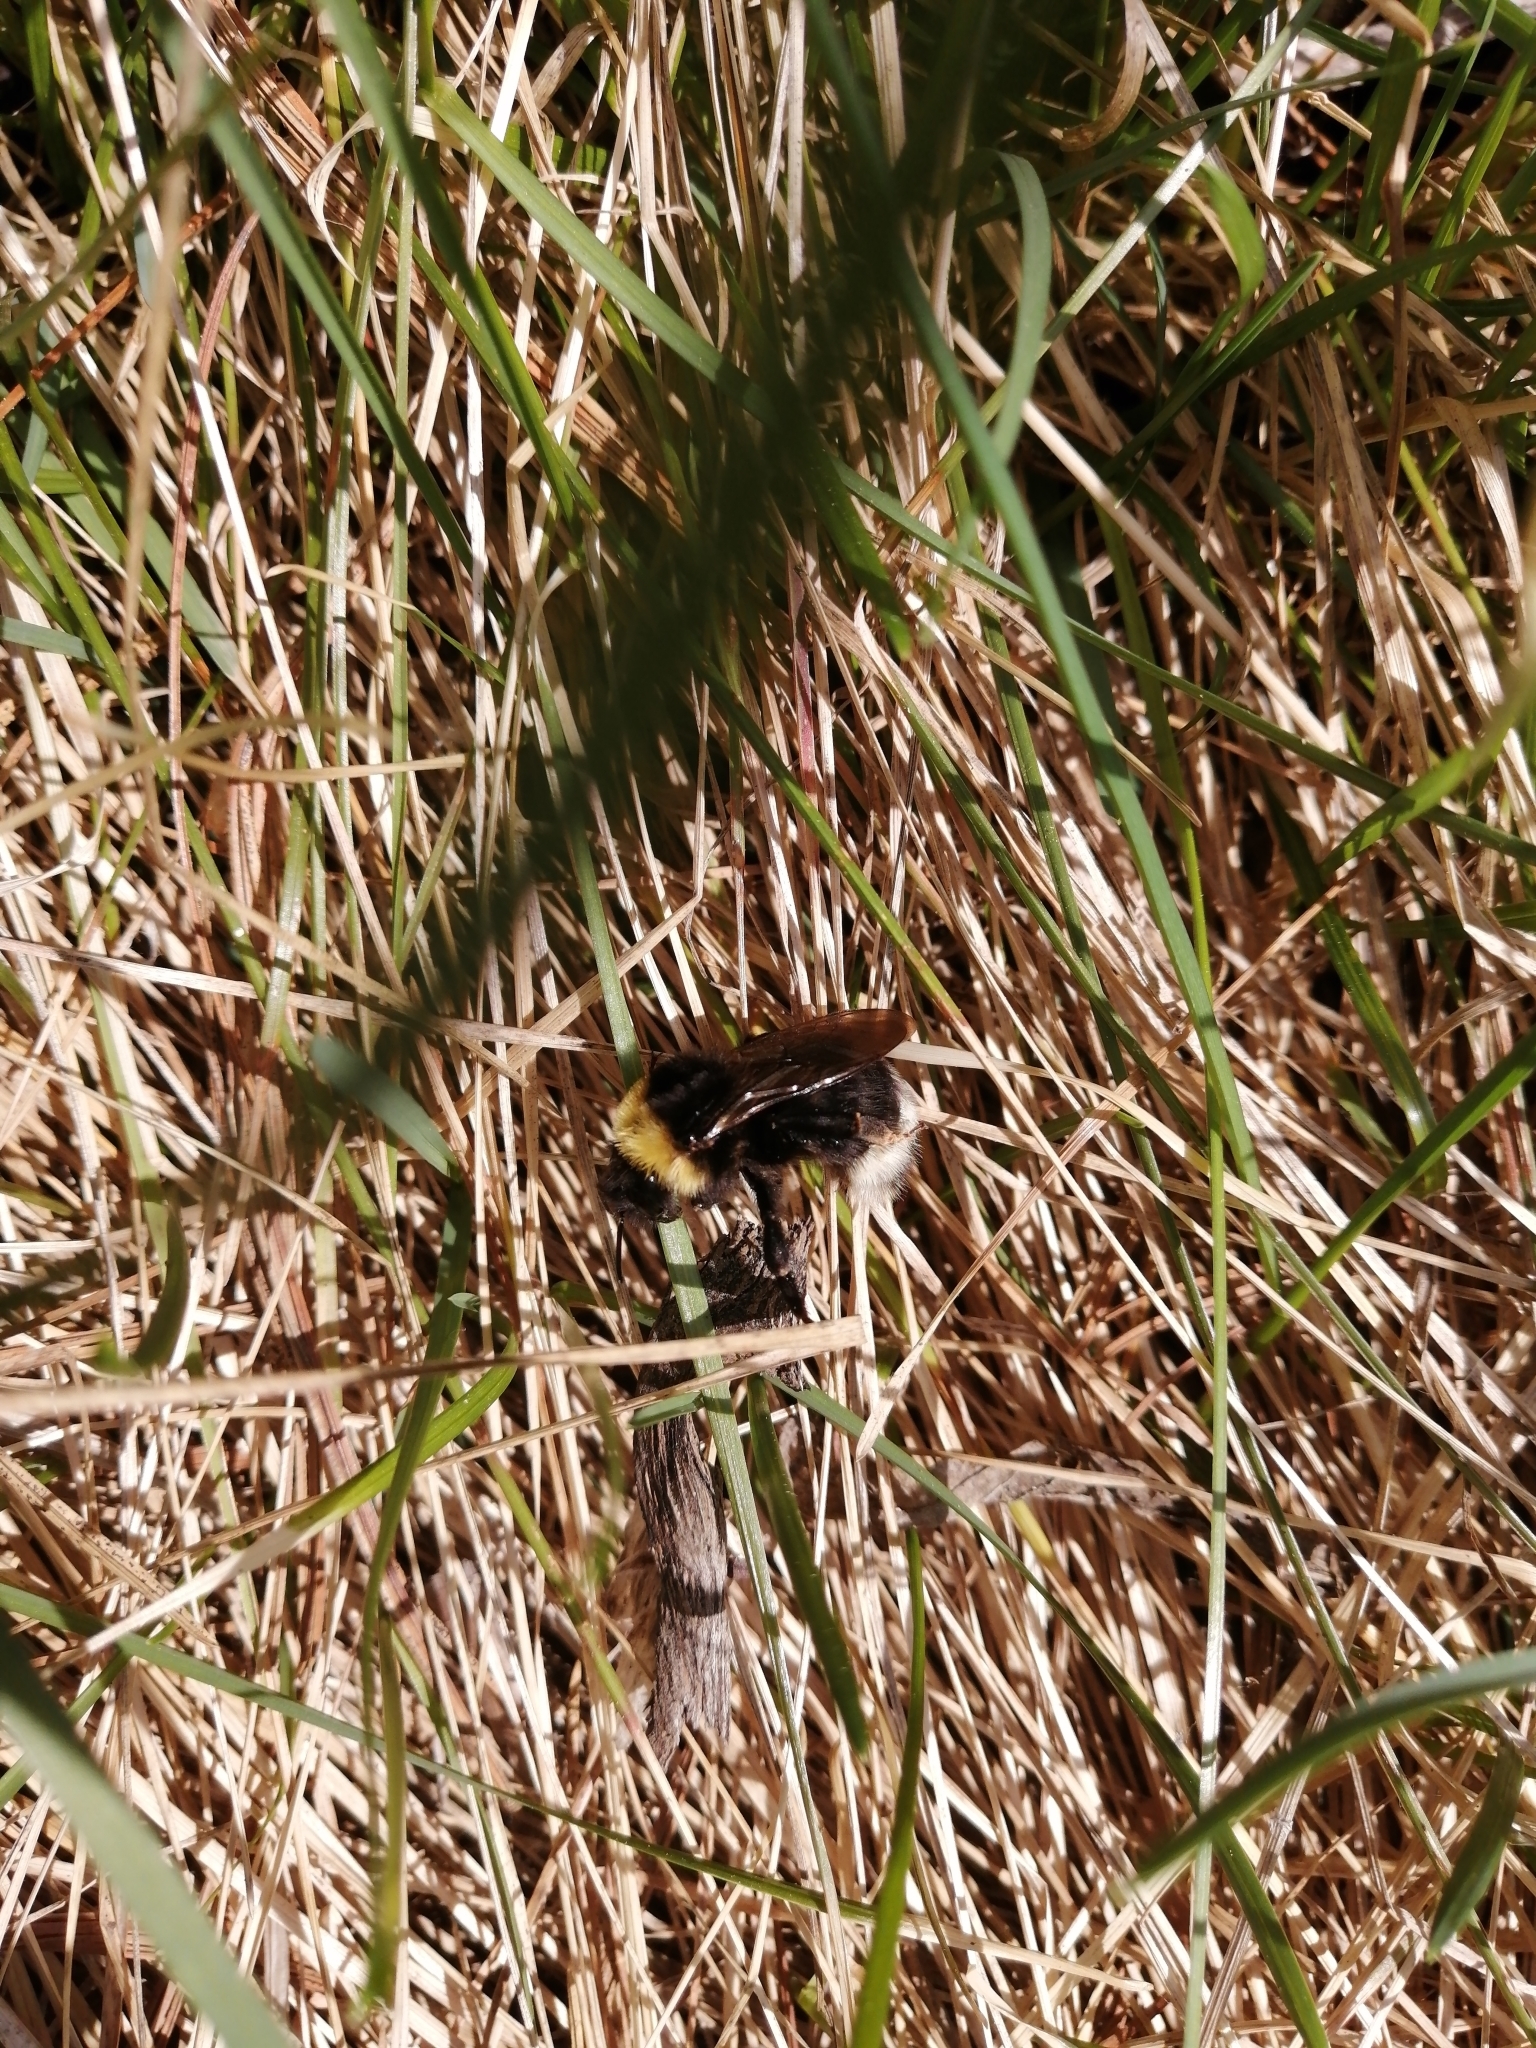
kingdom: Animalia
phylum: Arthropoda
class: Insecta
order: Hymenoptera
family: Apidae
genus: Bombus
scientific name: Bombus bohemicus
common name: Gypsy cuckoo bee
